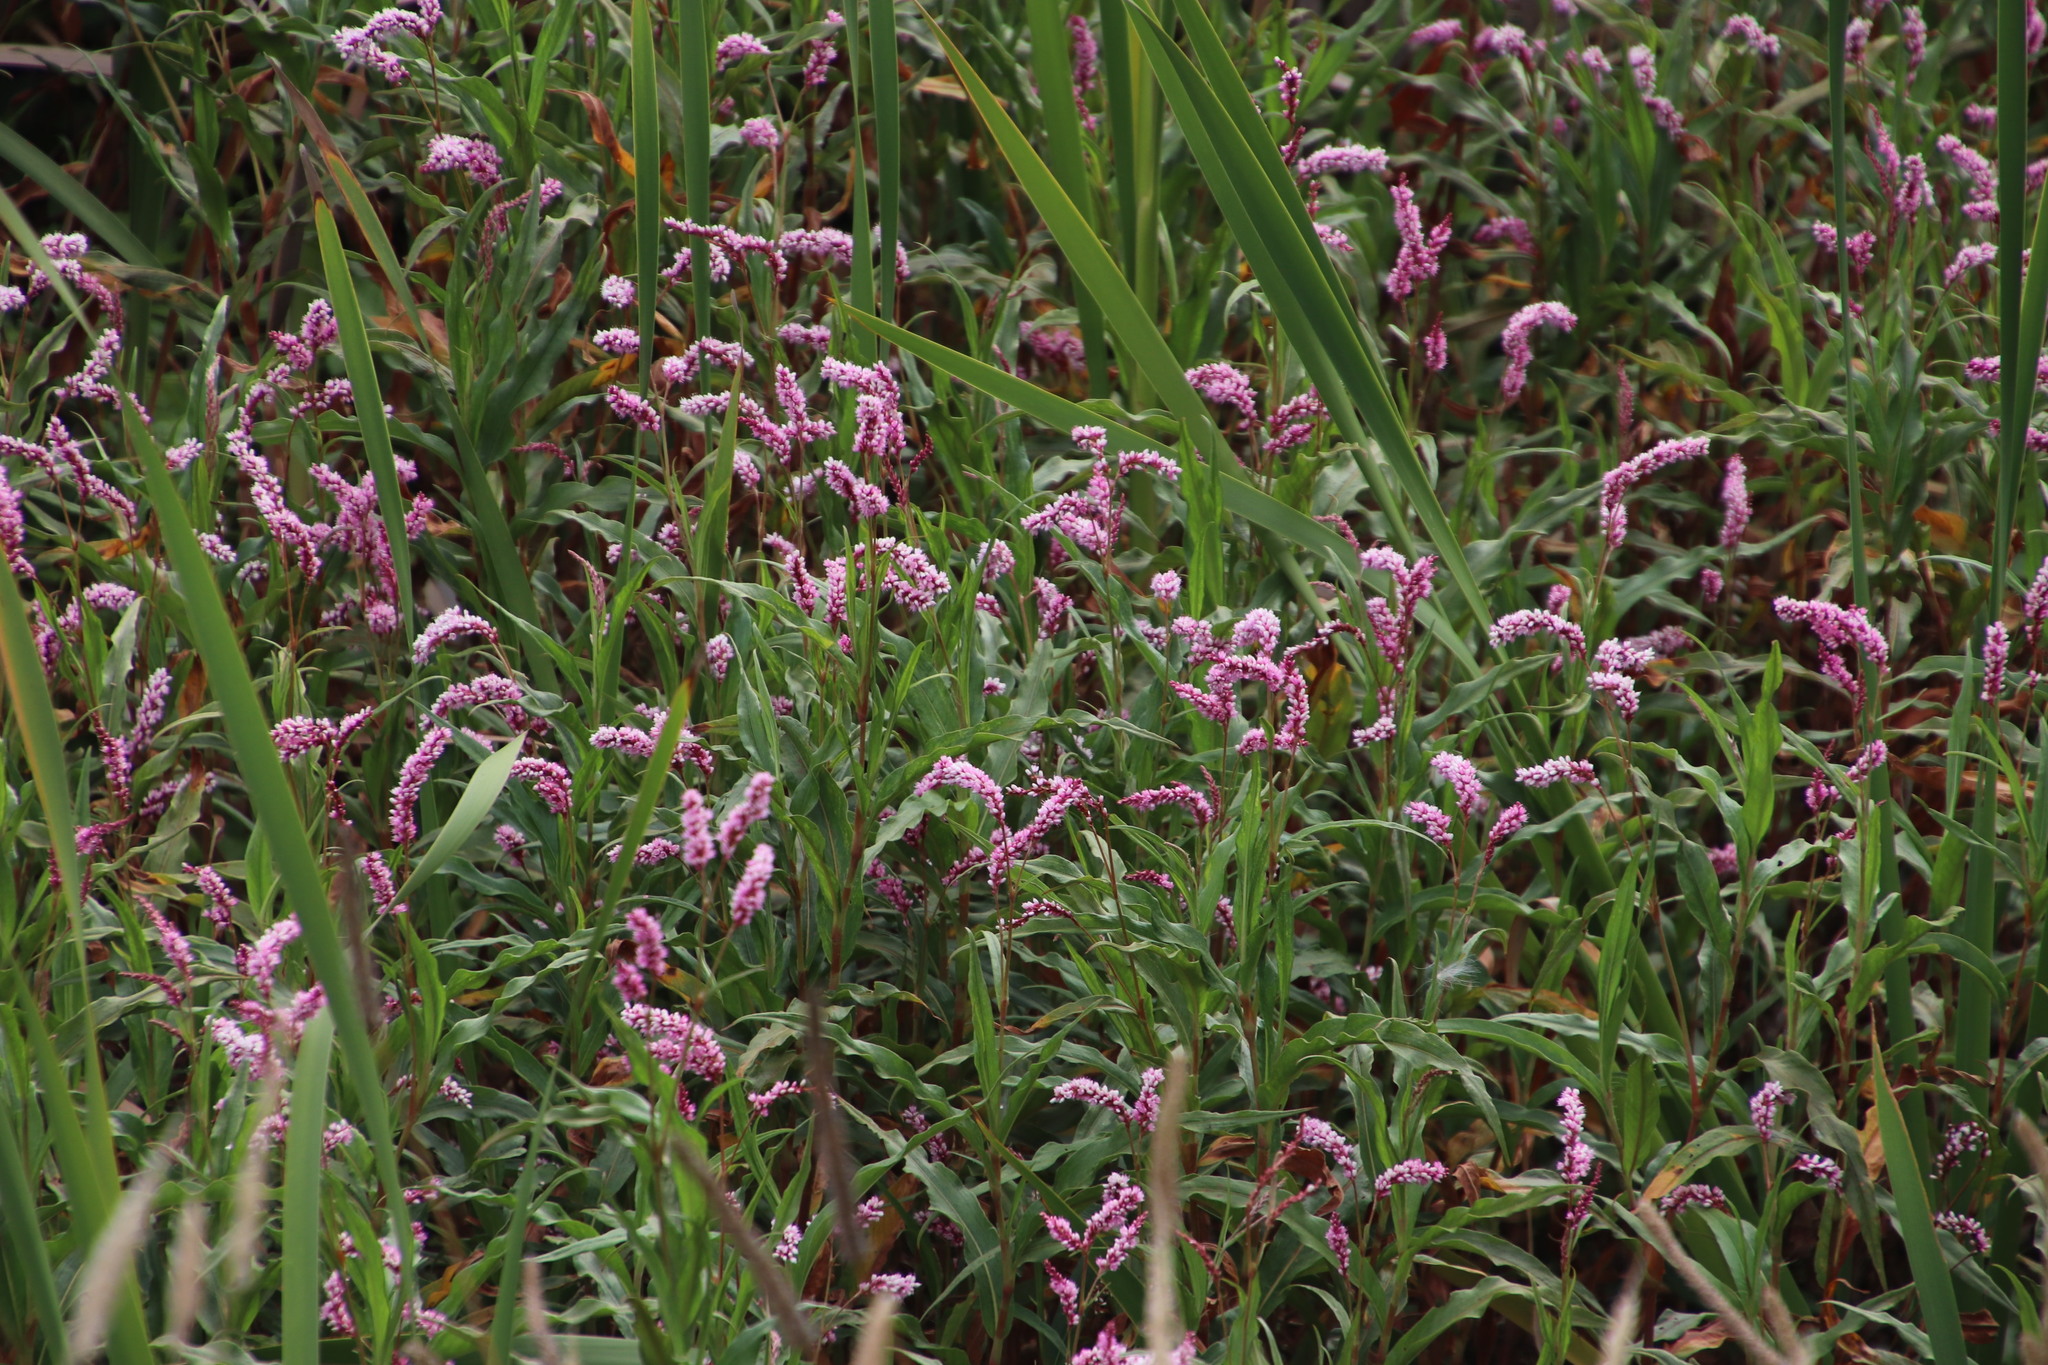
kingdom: Plantae
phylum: Tracheophyta
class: Magnoliopsida
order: Caryophyllales
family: Polygonaceae
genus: Persicaria
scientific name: Persicaria madagascariensis
